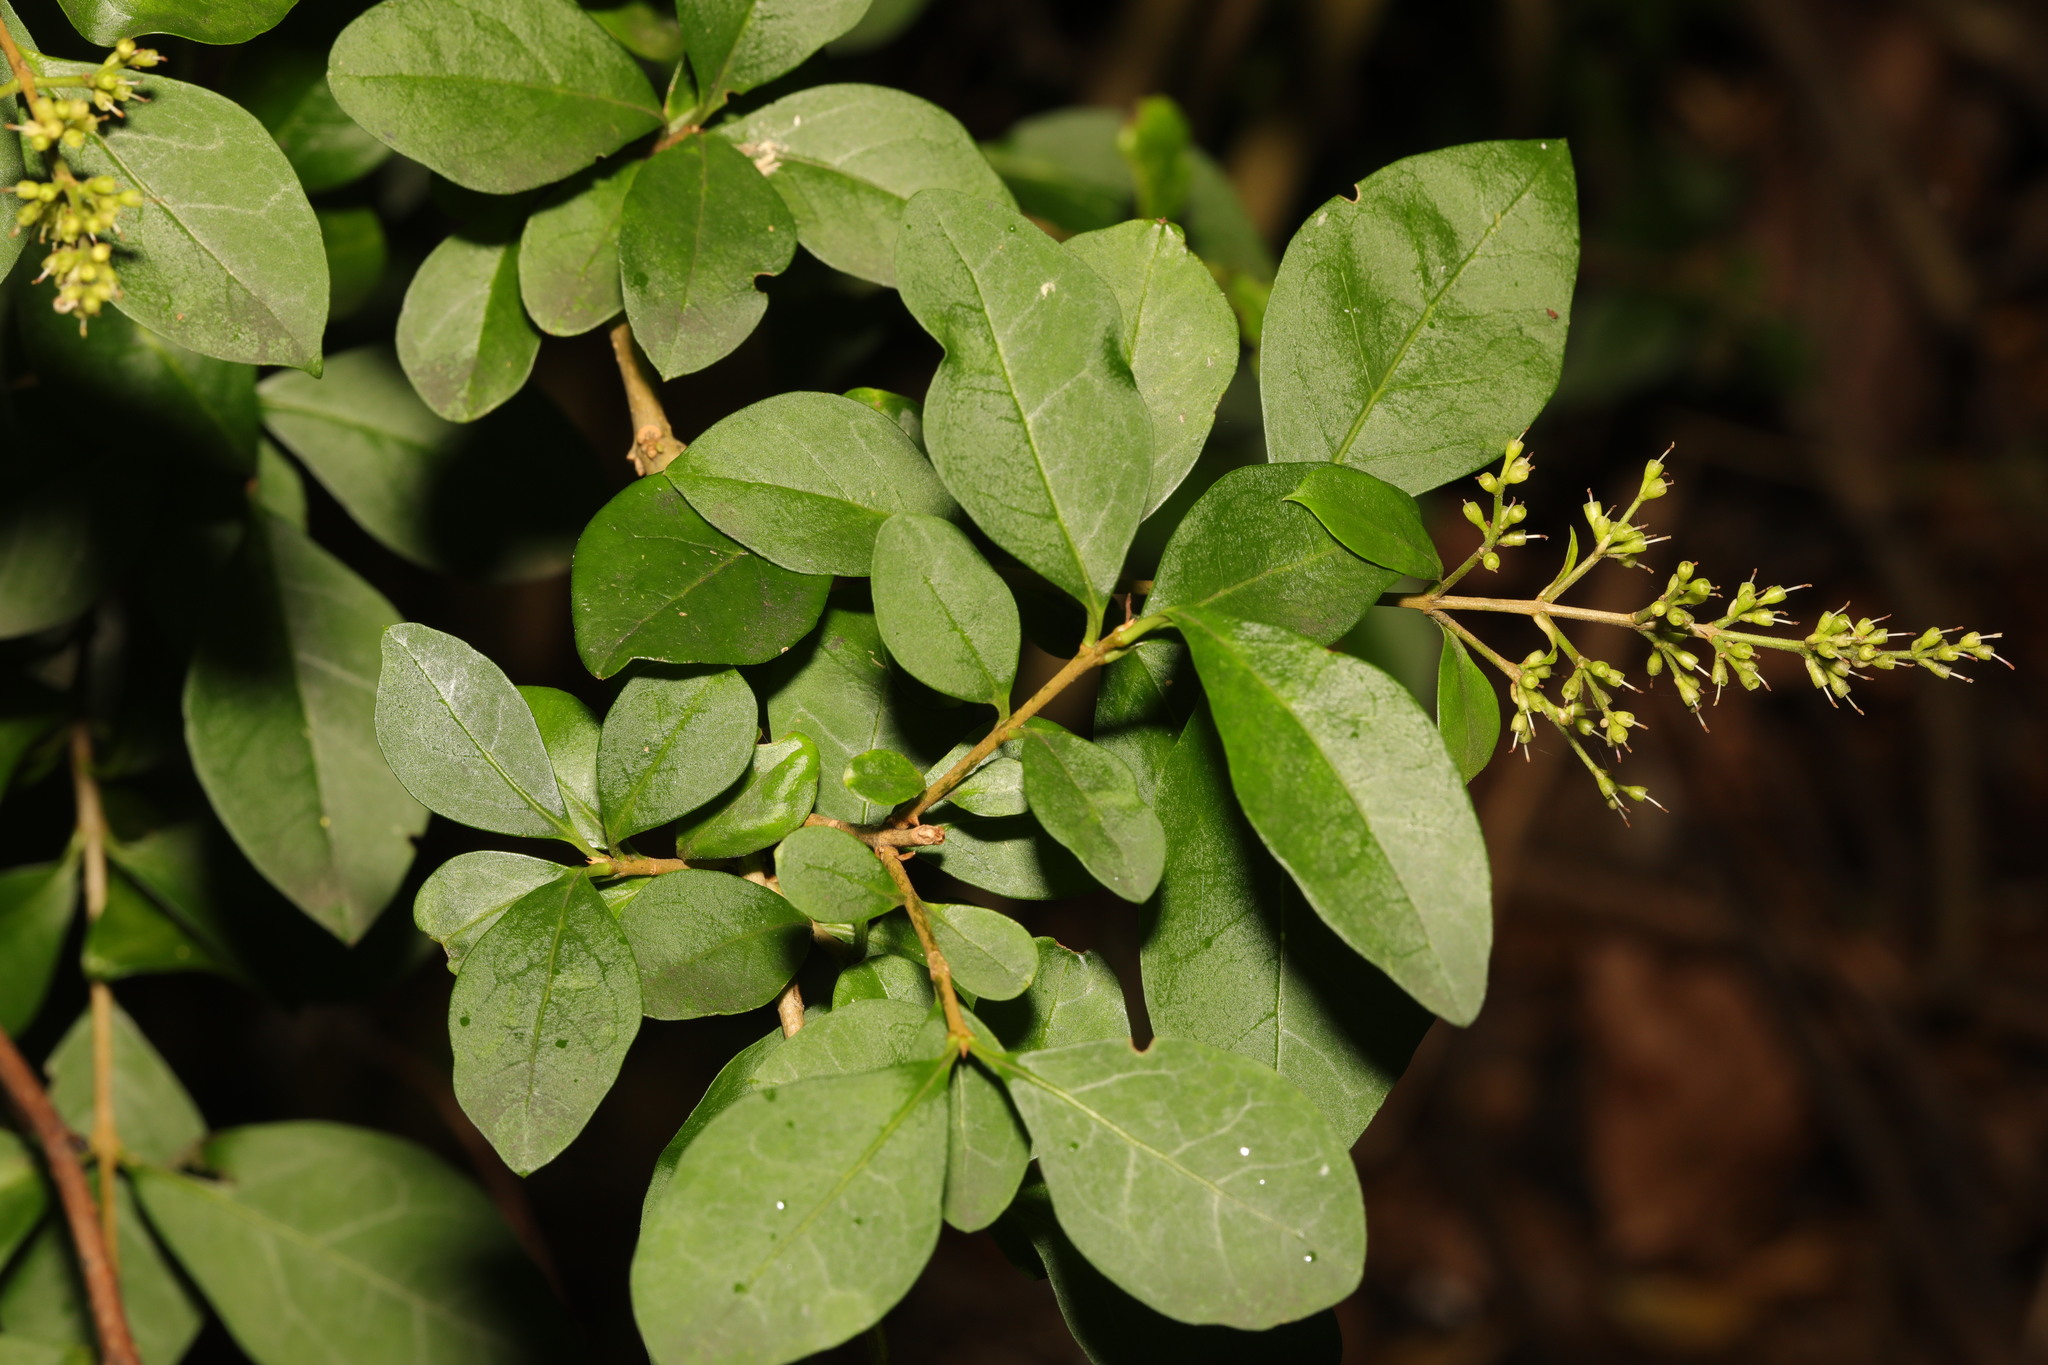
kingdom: Plantae
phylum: Tracheophyta
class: Magnoliopsida
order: Lamiales
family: Oleaceae
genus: Ligustrum
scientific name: Ligustrum ovalifolium
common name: California privet
